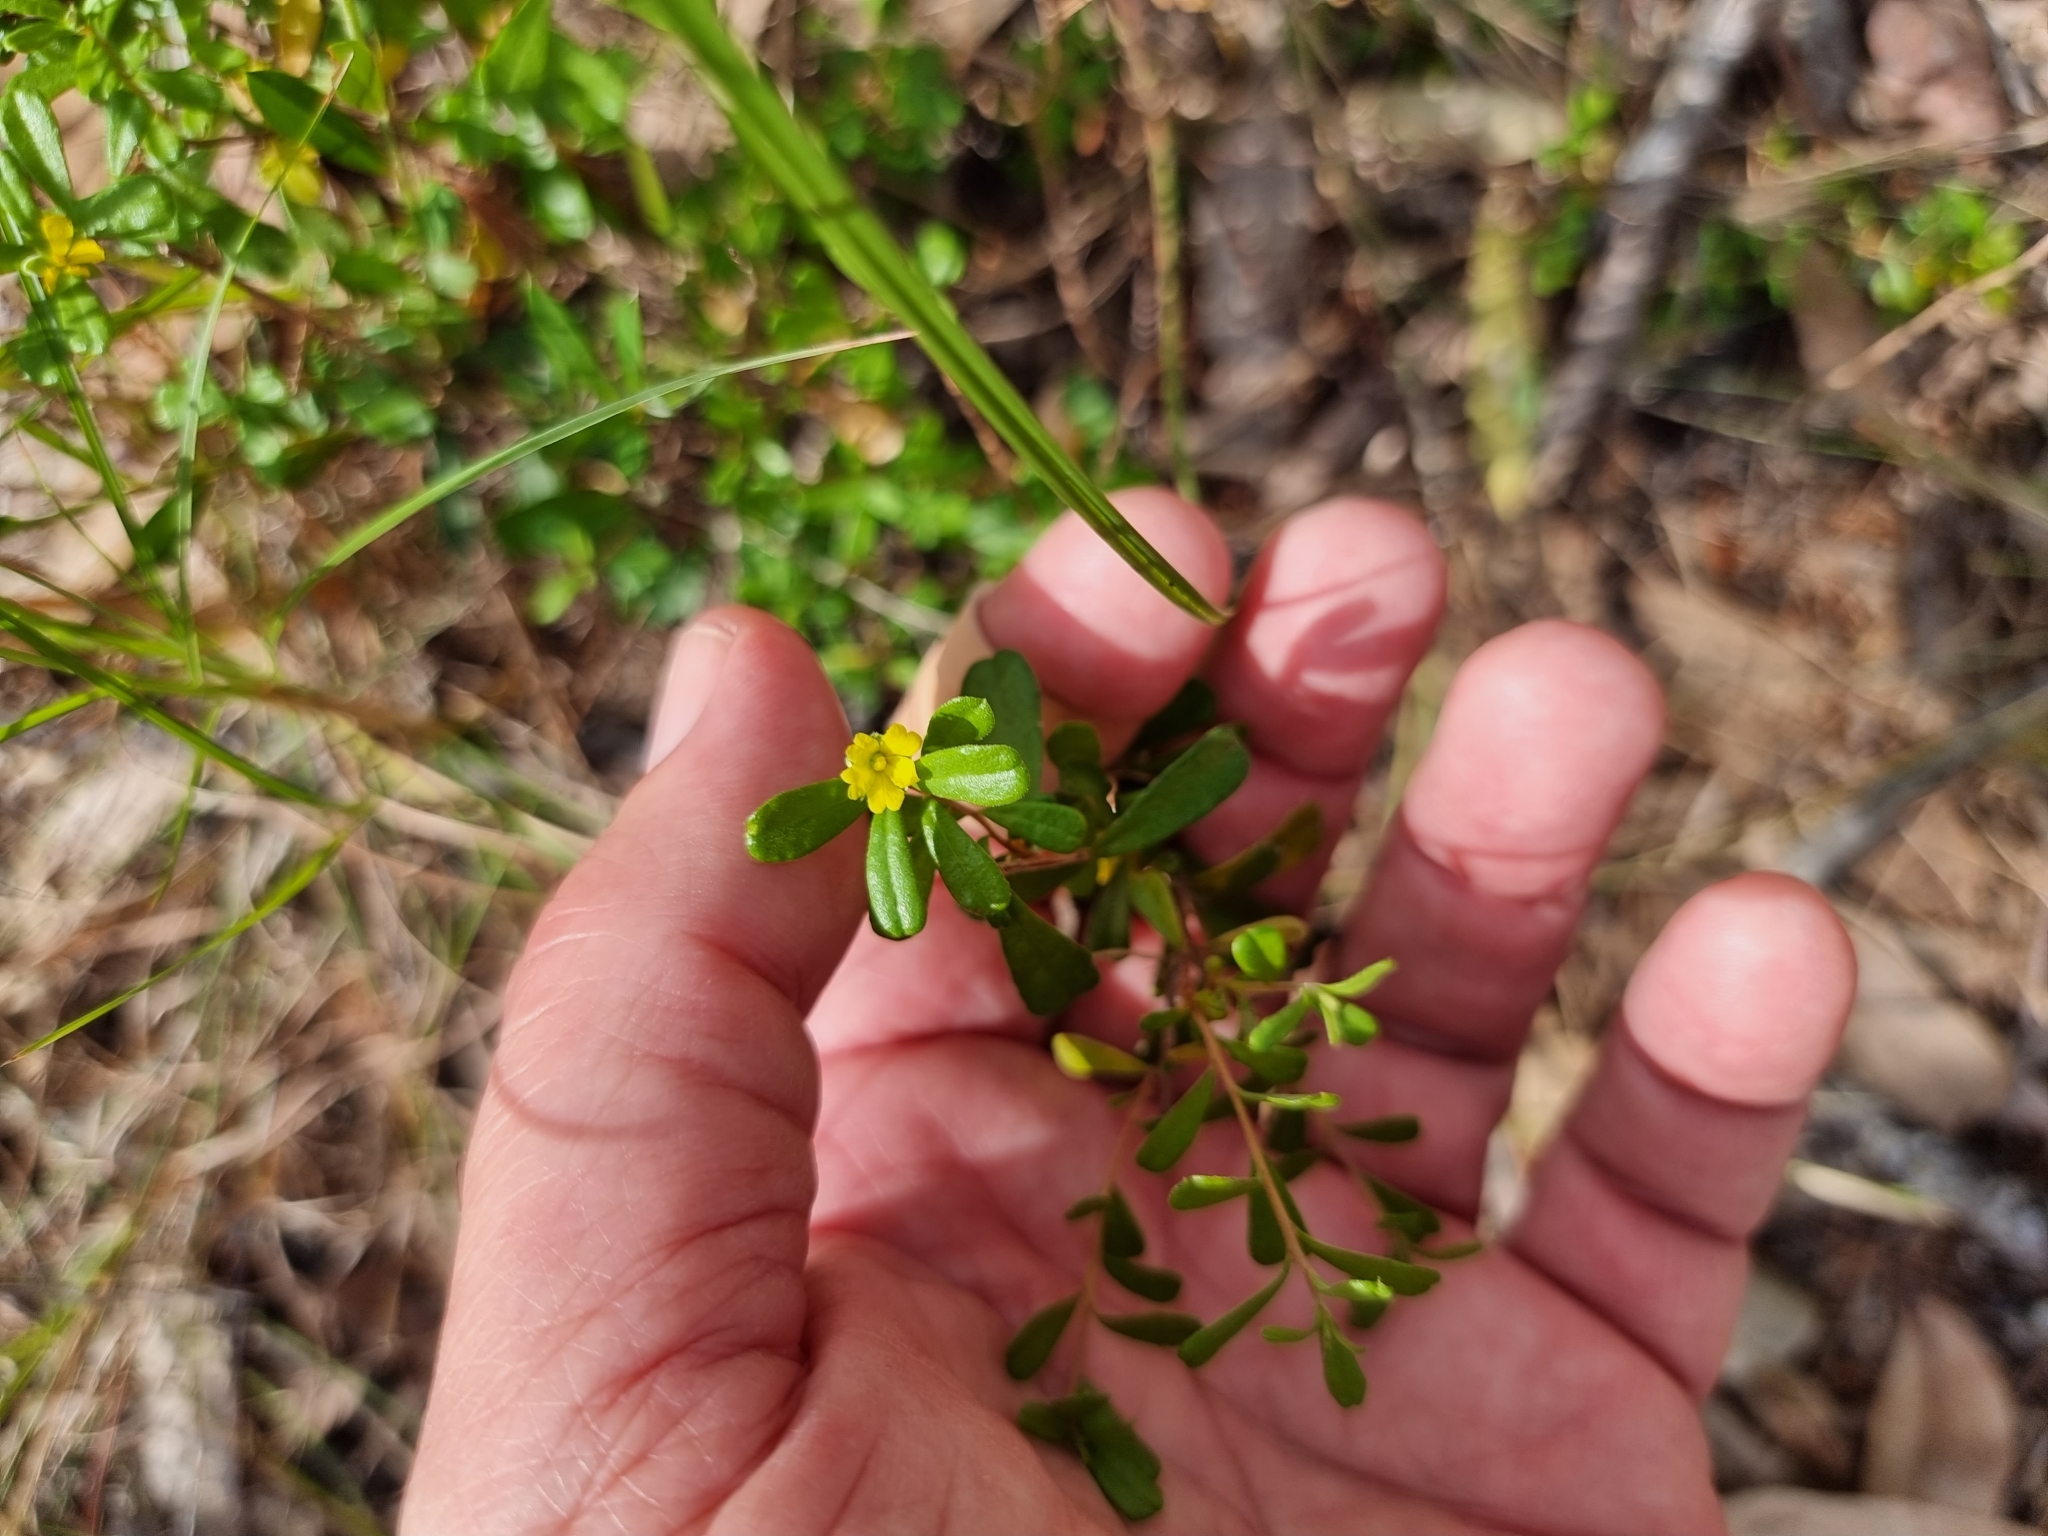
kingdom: Plantae
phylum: Tracheophyta
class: Magnoliopsida
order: Dilleniales
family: Dilleniaceae
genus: Hibbertia
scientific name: Hibbertia aspera
